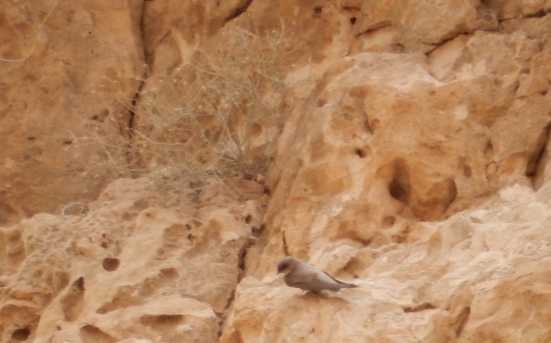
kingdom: Animalia
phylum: Chordata
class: Aves
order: Passeriformes
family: Hirundinidae
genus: Ptyonoprogne
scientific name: Ptyonoprogne fuligula
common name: Rock martin
